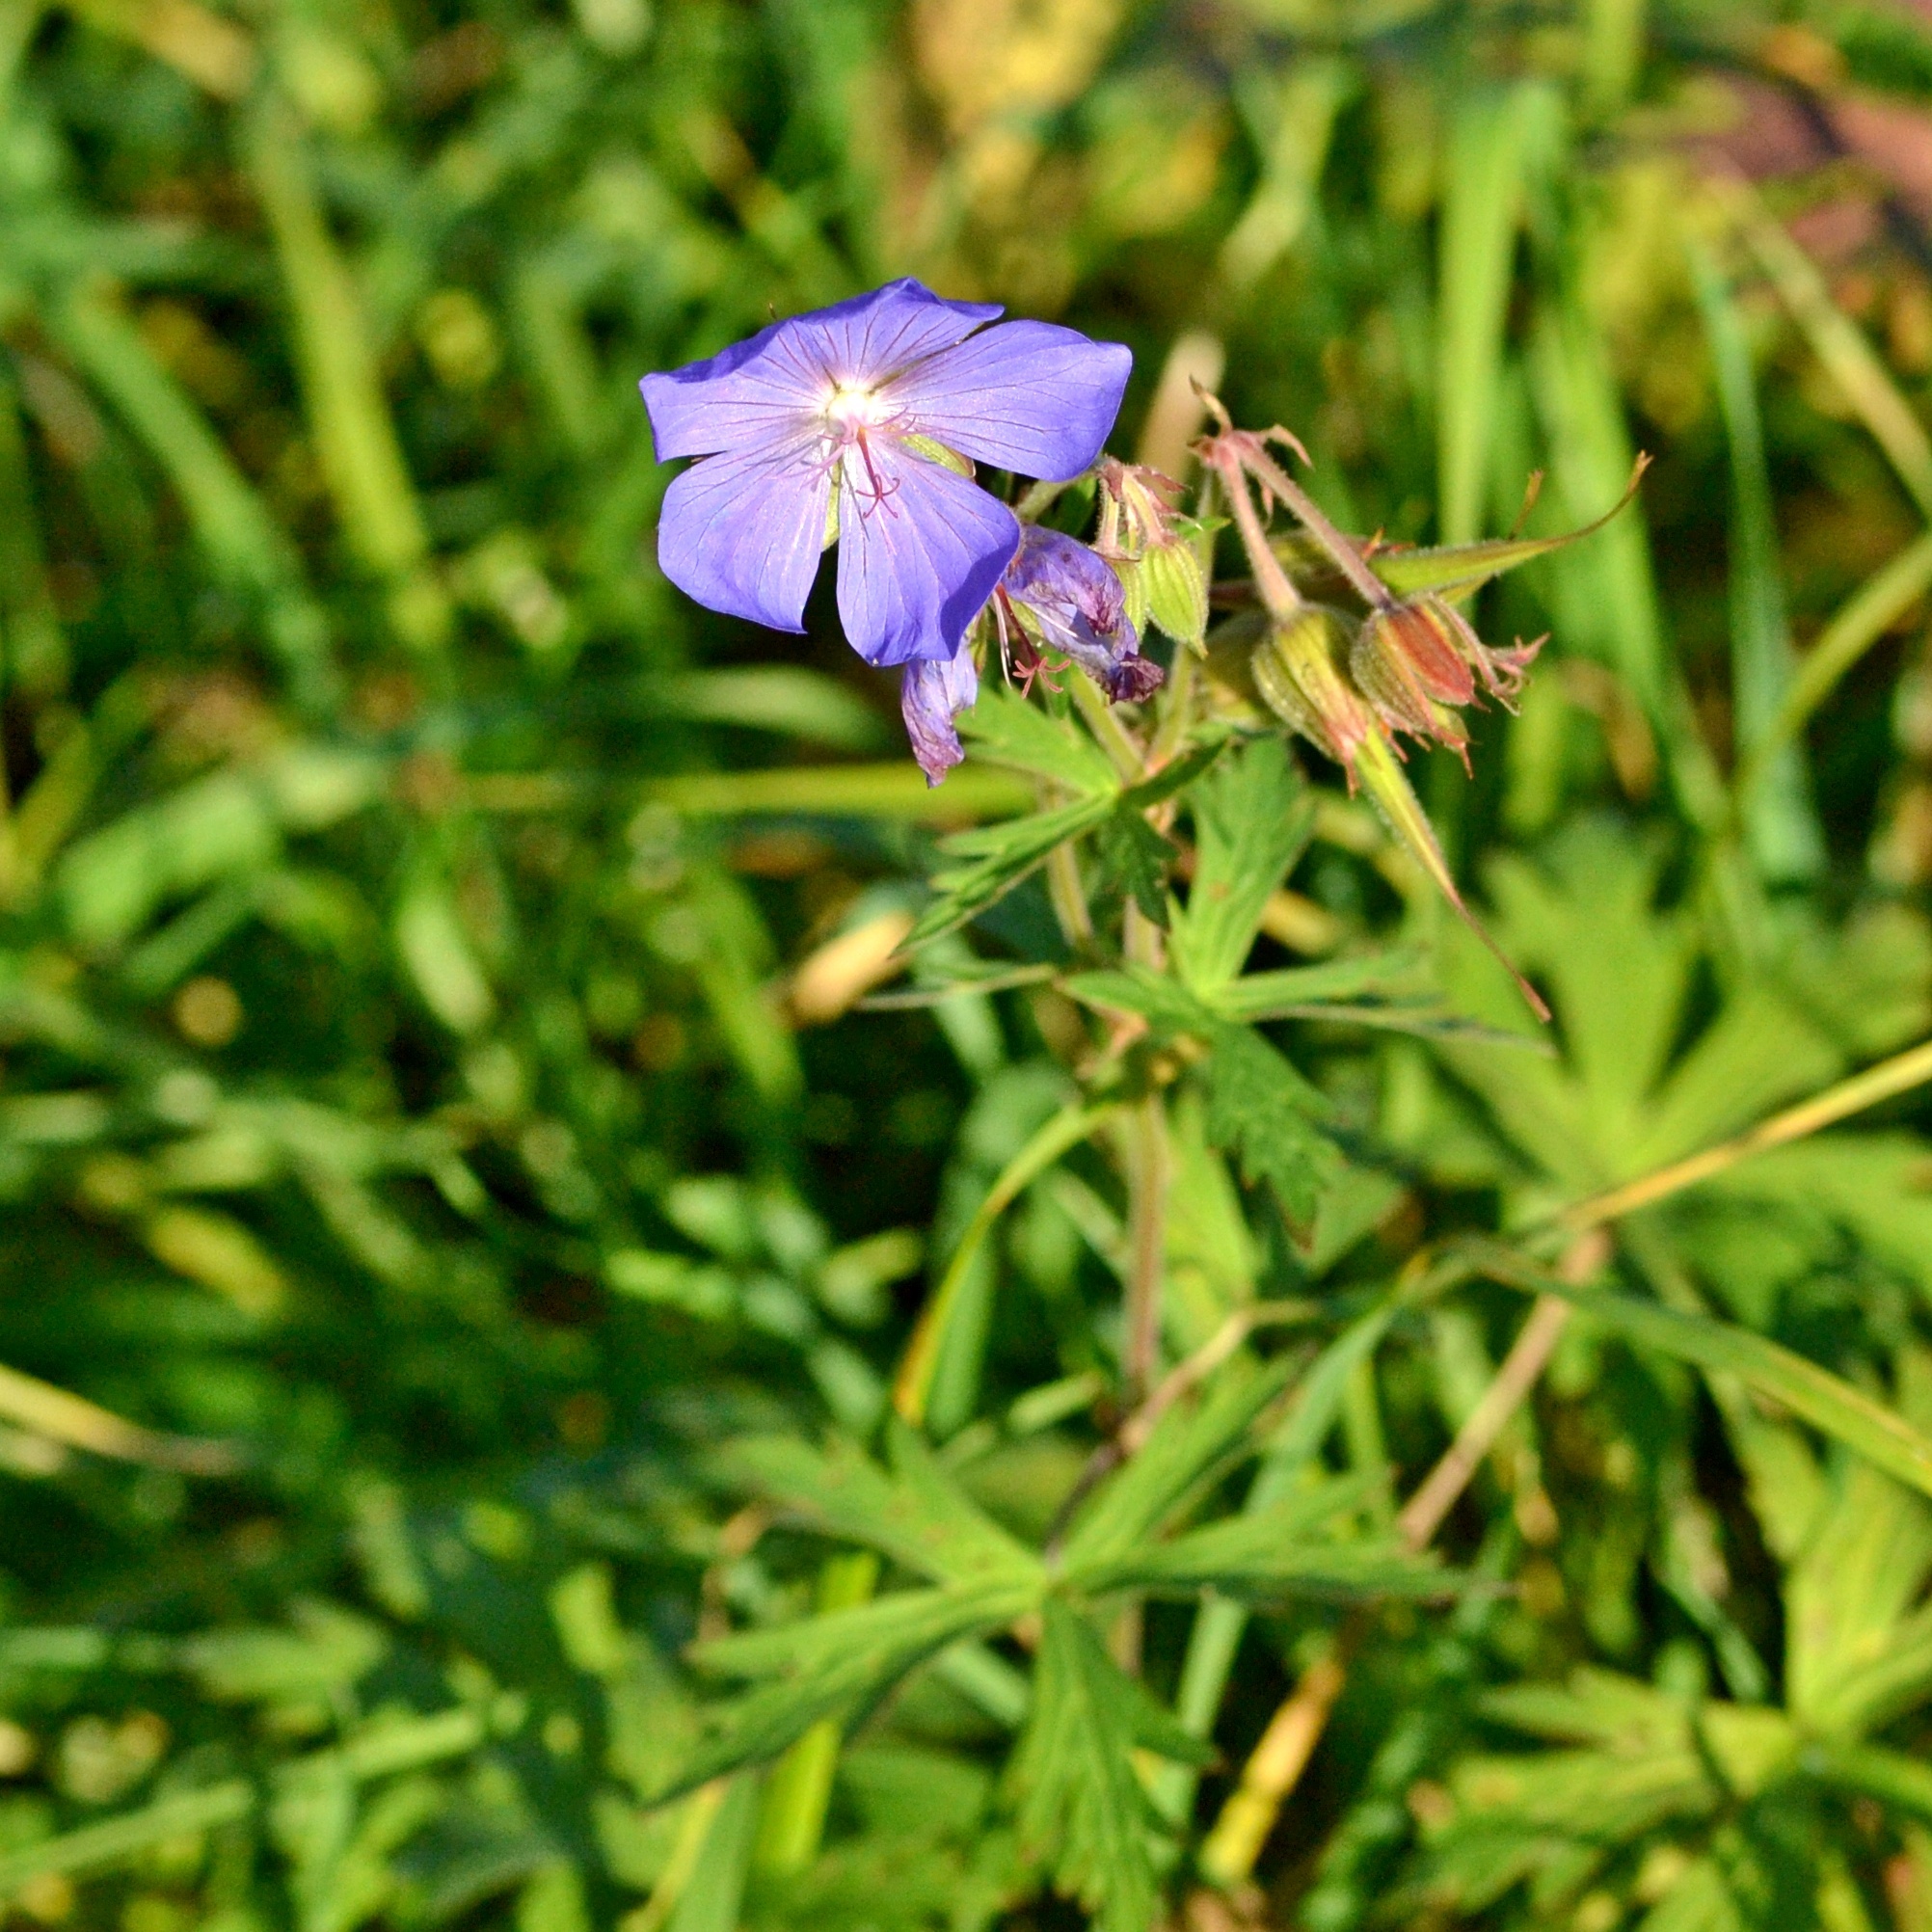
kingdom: Plantae
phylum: Tracheophyta
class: Magnoliopsida
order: Geraniales
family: Geraniaceae
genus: Geranium
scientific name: Geranium pratense
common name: Meadow crane's-bill
